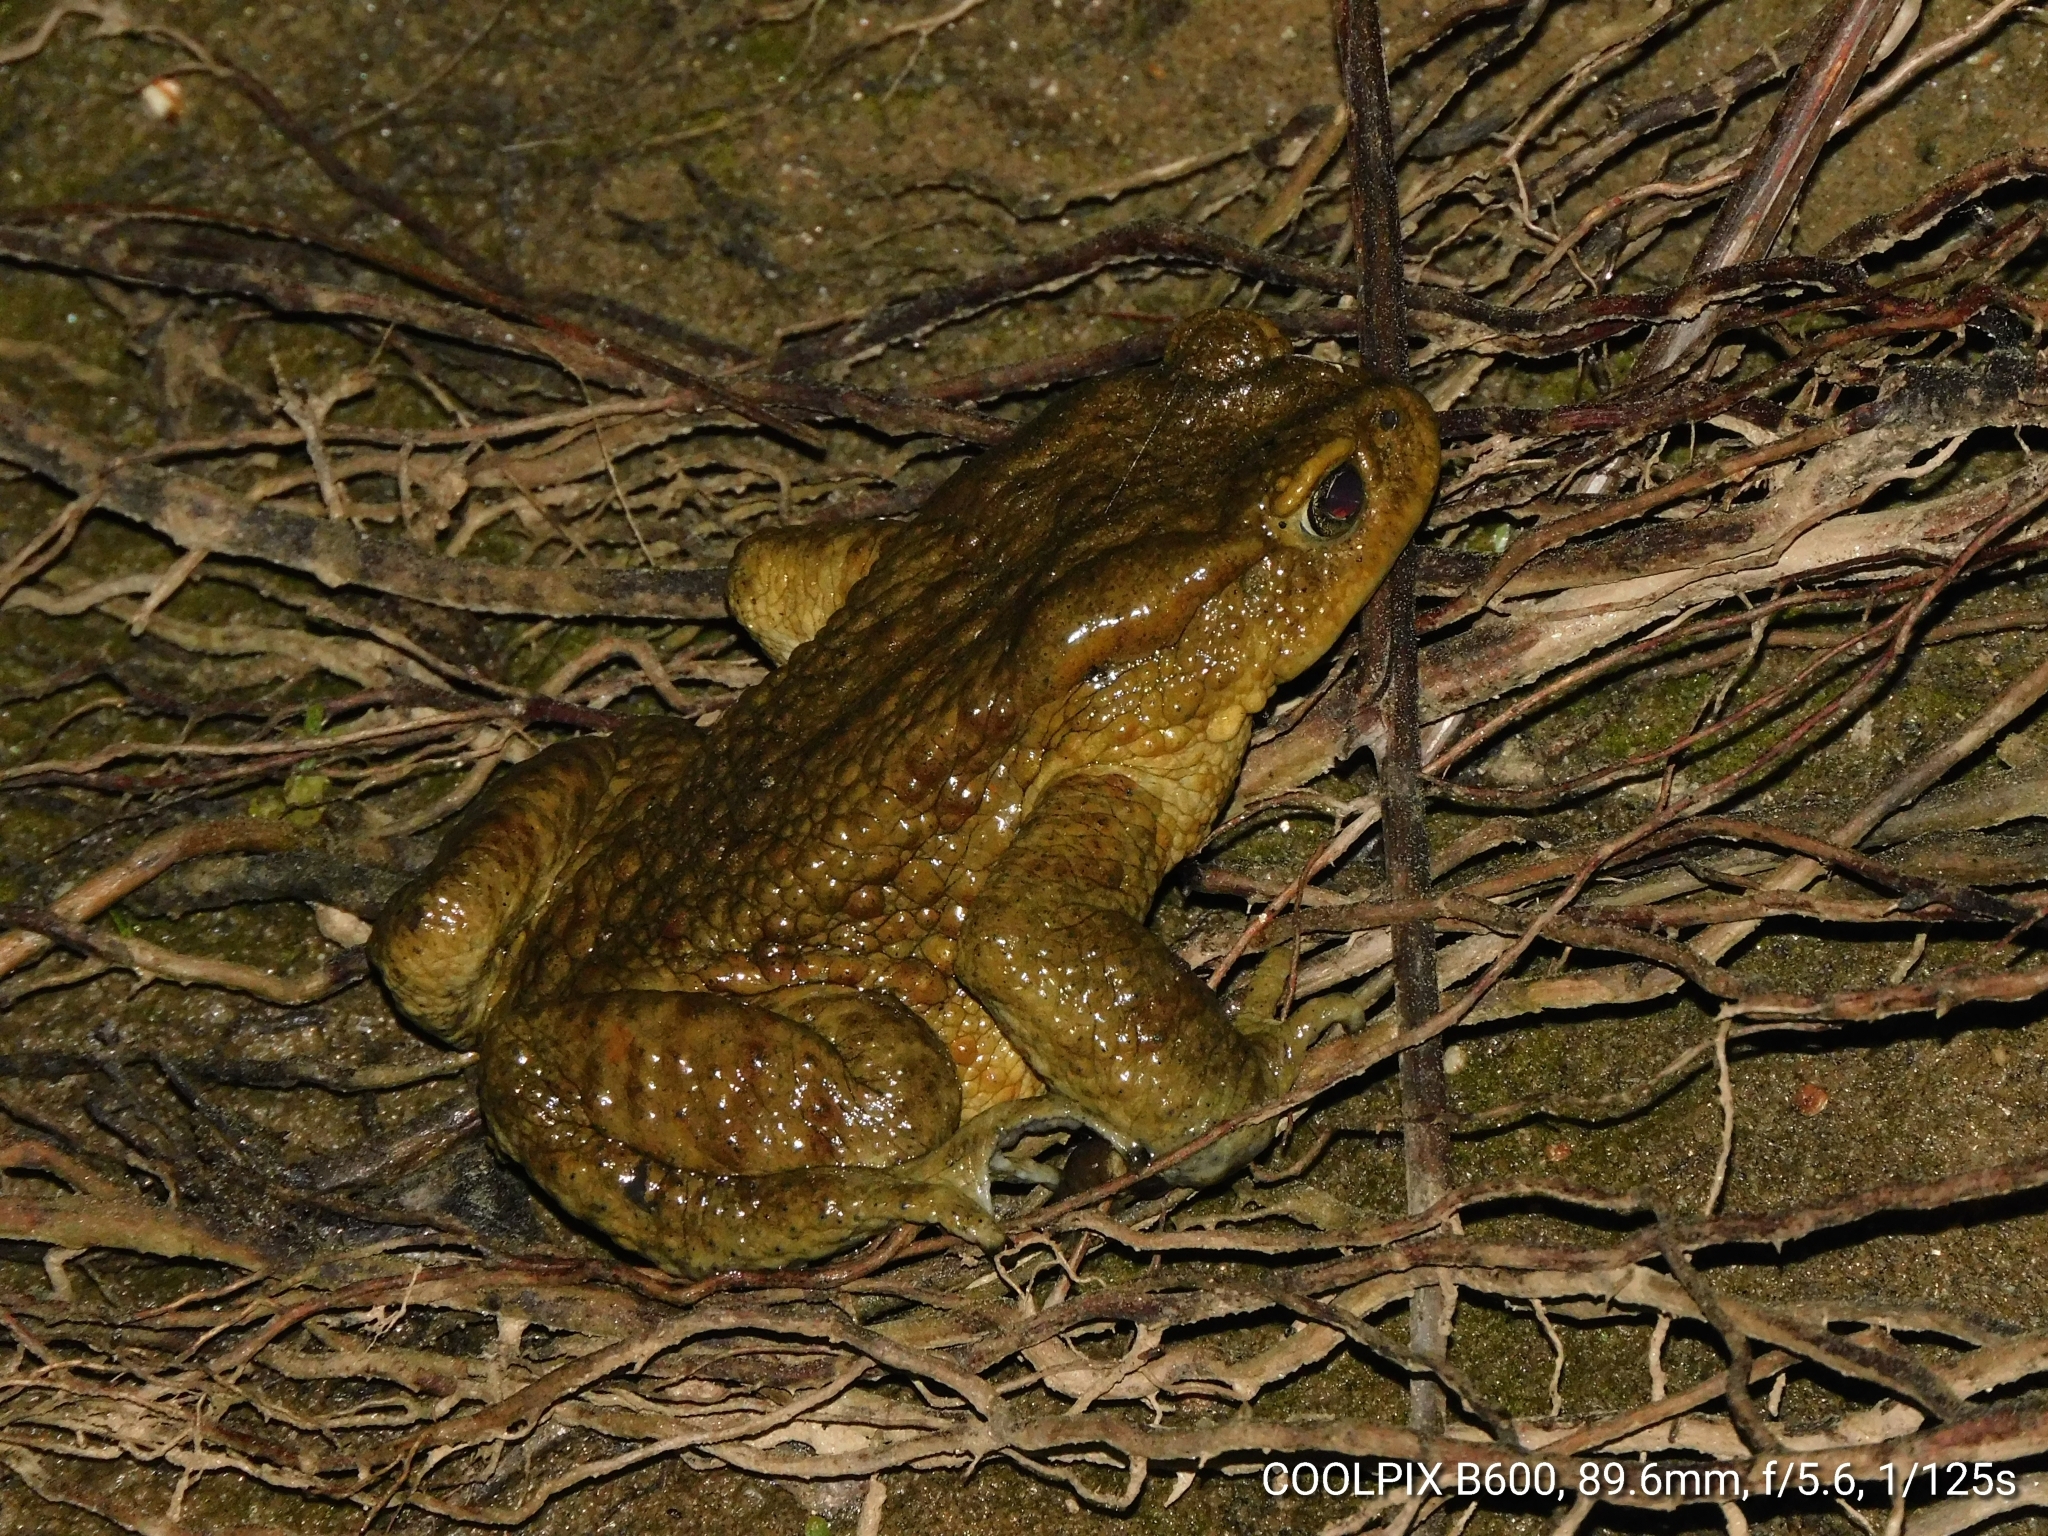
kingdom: Animalia
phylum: Chordata
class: Amphibia
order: Anura
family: Bufonidae
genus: Duttaphrynus
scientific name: Duttaphrynus himalayanus
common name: Günther's high altitude toad
